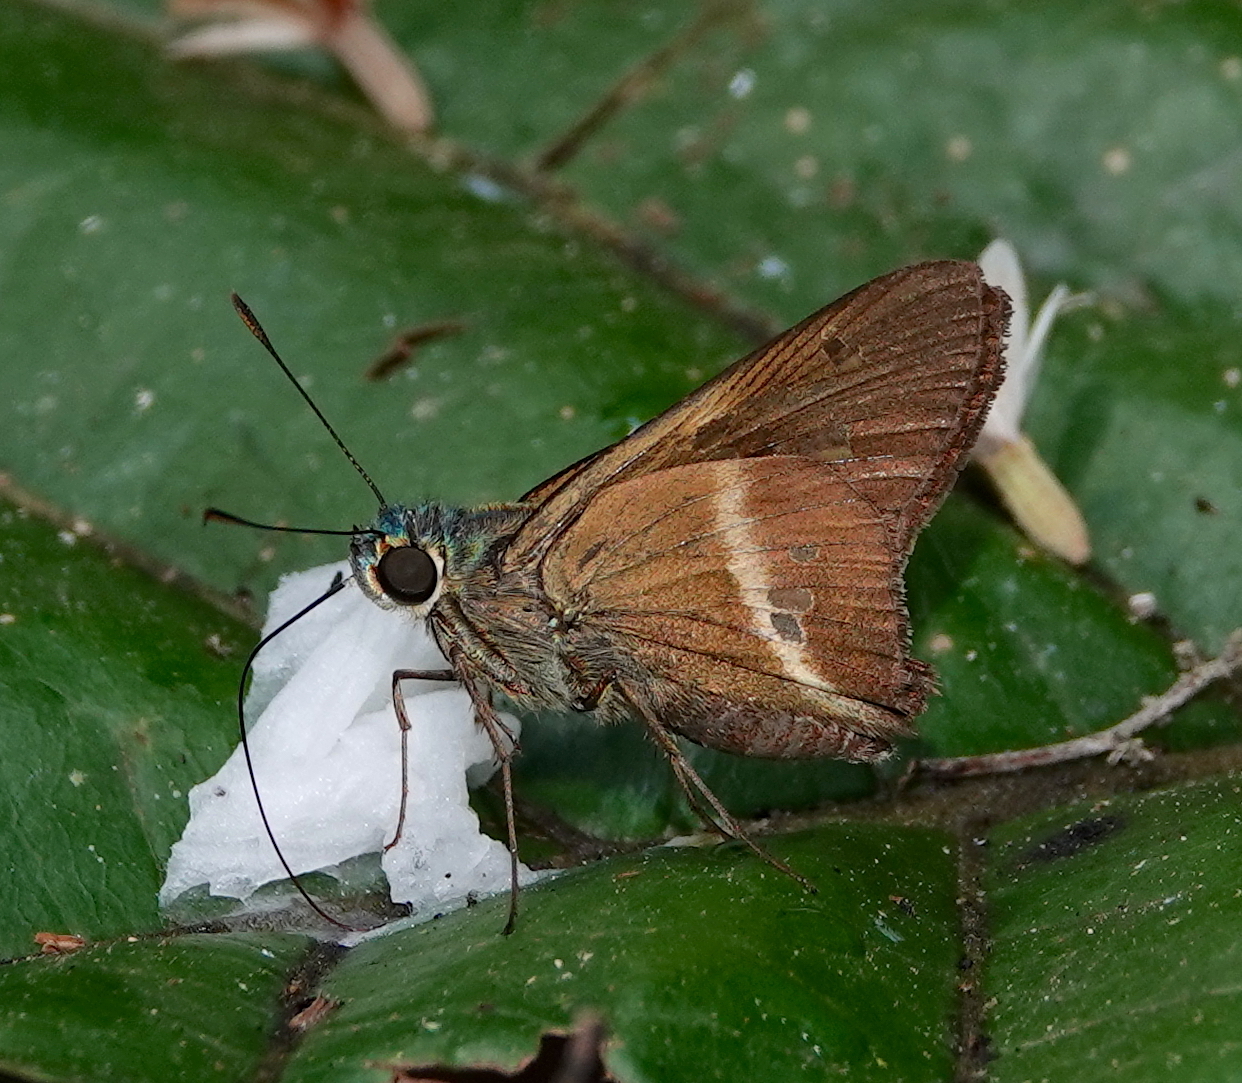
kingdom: Animalia
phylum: Arthropoda
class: Insecta
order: Lepidoptera
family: Hesperiidae
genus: Niconiades
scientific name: Niconiades nikko
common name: Nikko skipper
